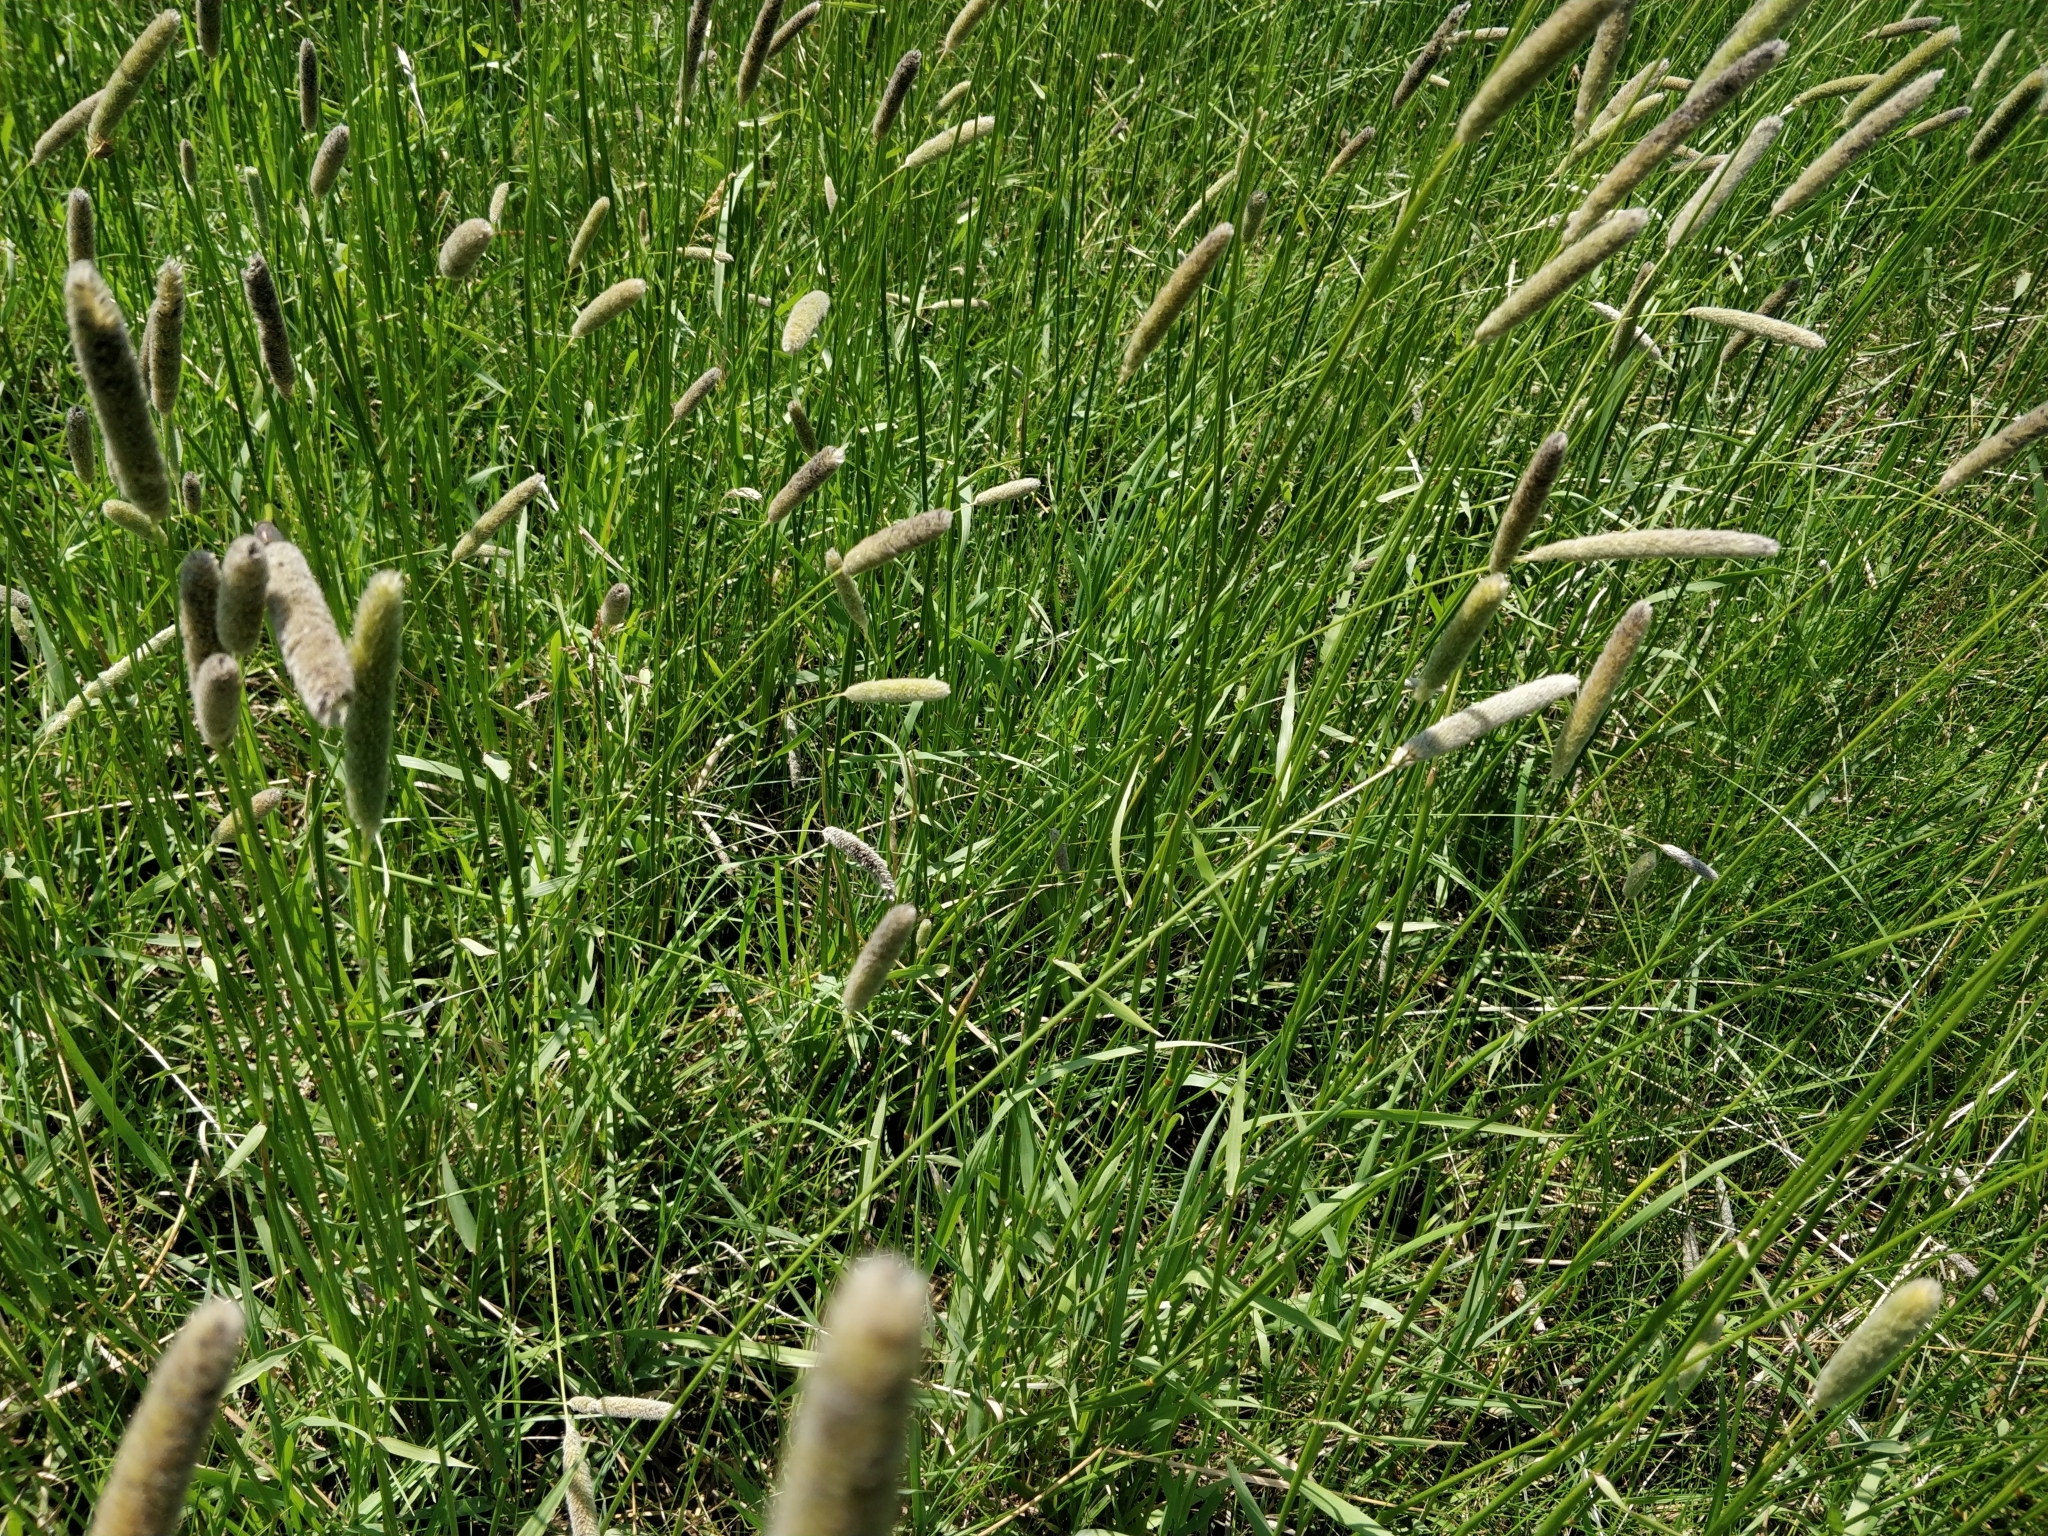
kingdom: Plantae
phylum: Tracheophyta
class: Liliopsida
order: Poales
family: Poaceae
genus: Phleum
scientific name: Phleum pratense
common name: Timothy grass
